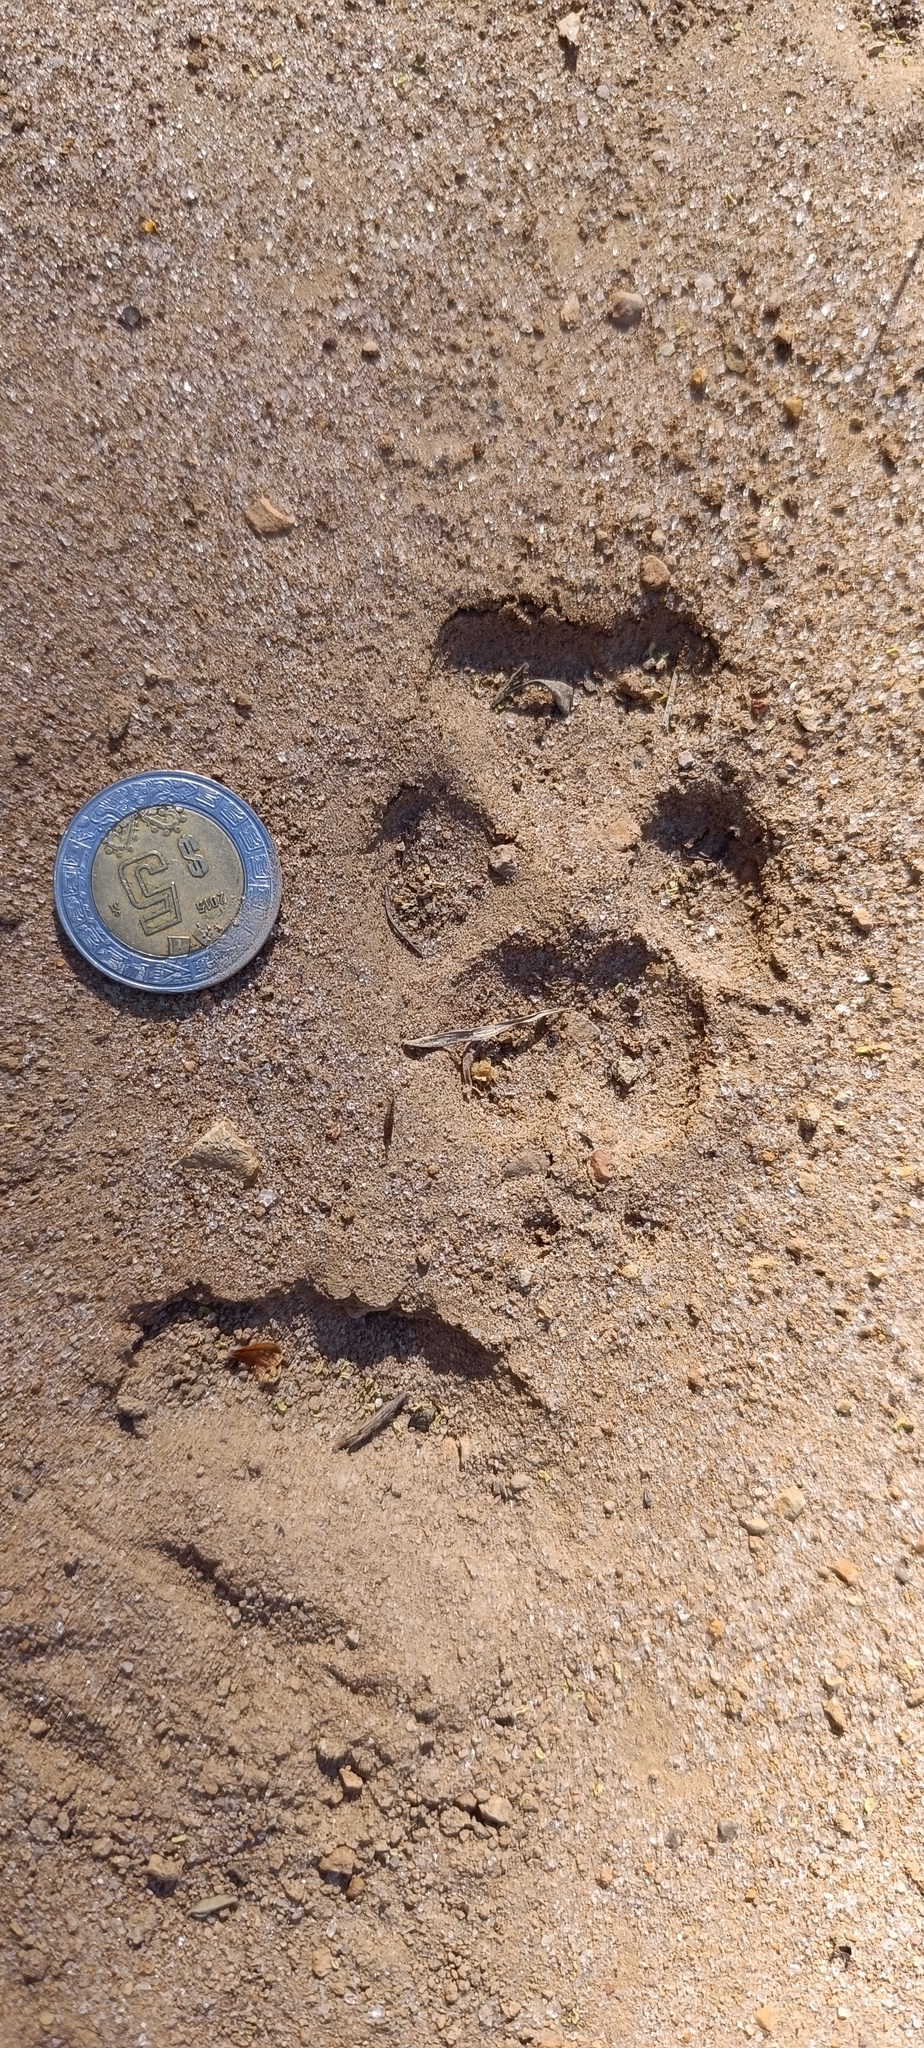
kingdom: Animalia
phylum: Chordata
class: Mammalia
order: Carnivora
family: Canidae
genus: Canis
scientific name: Canis latrans
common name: Coyote
